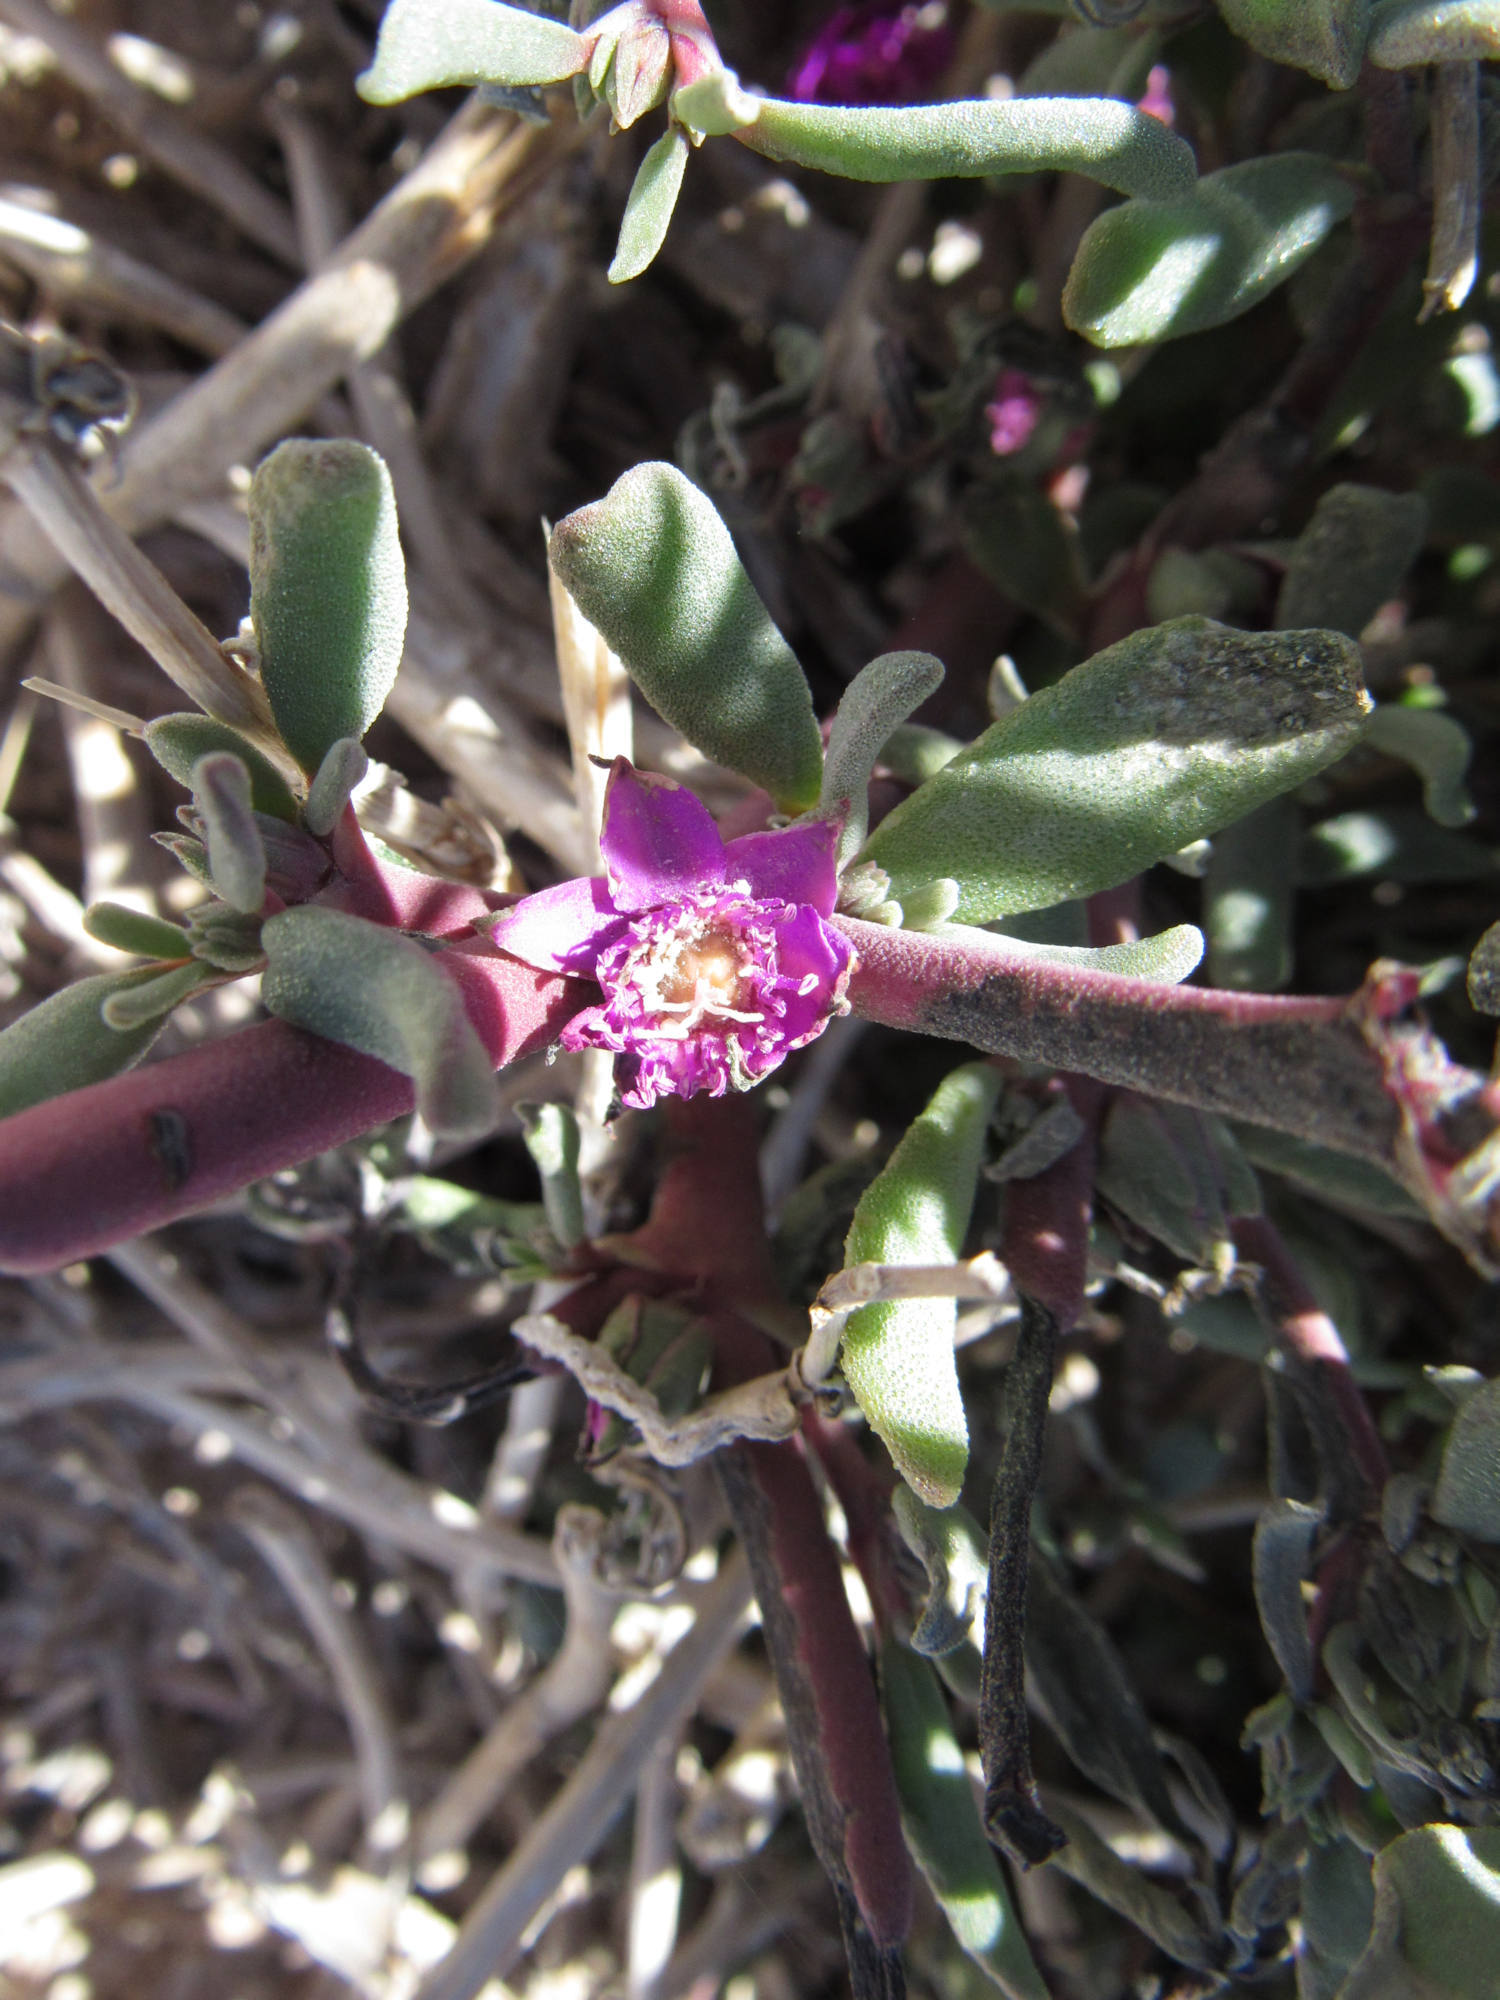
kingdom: Plantae
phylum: Tracheophyta
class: Magnoliopsida
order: Caryophyllales
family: Aizoaceae
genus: Sesuvium
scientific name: Sesuvium revolutifolium
